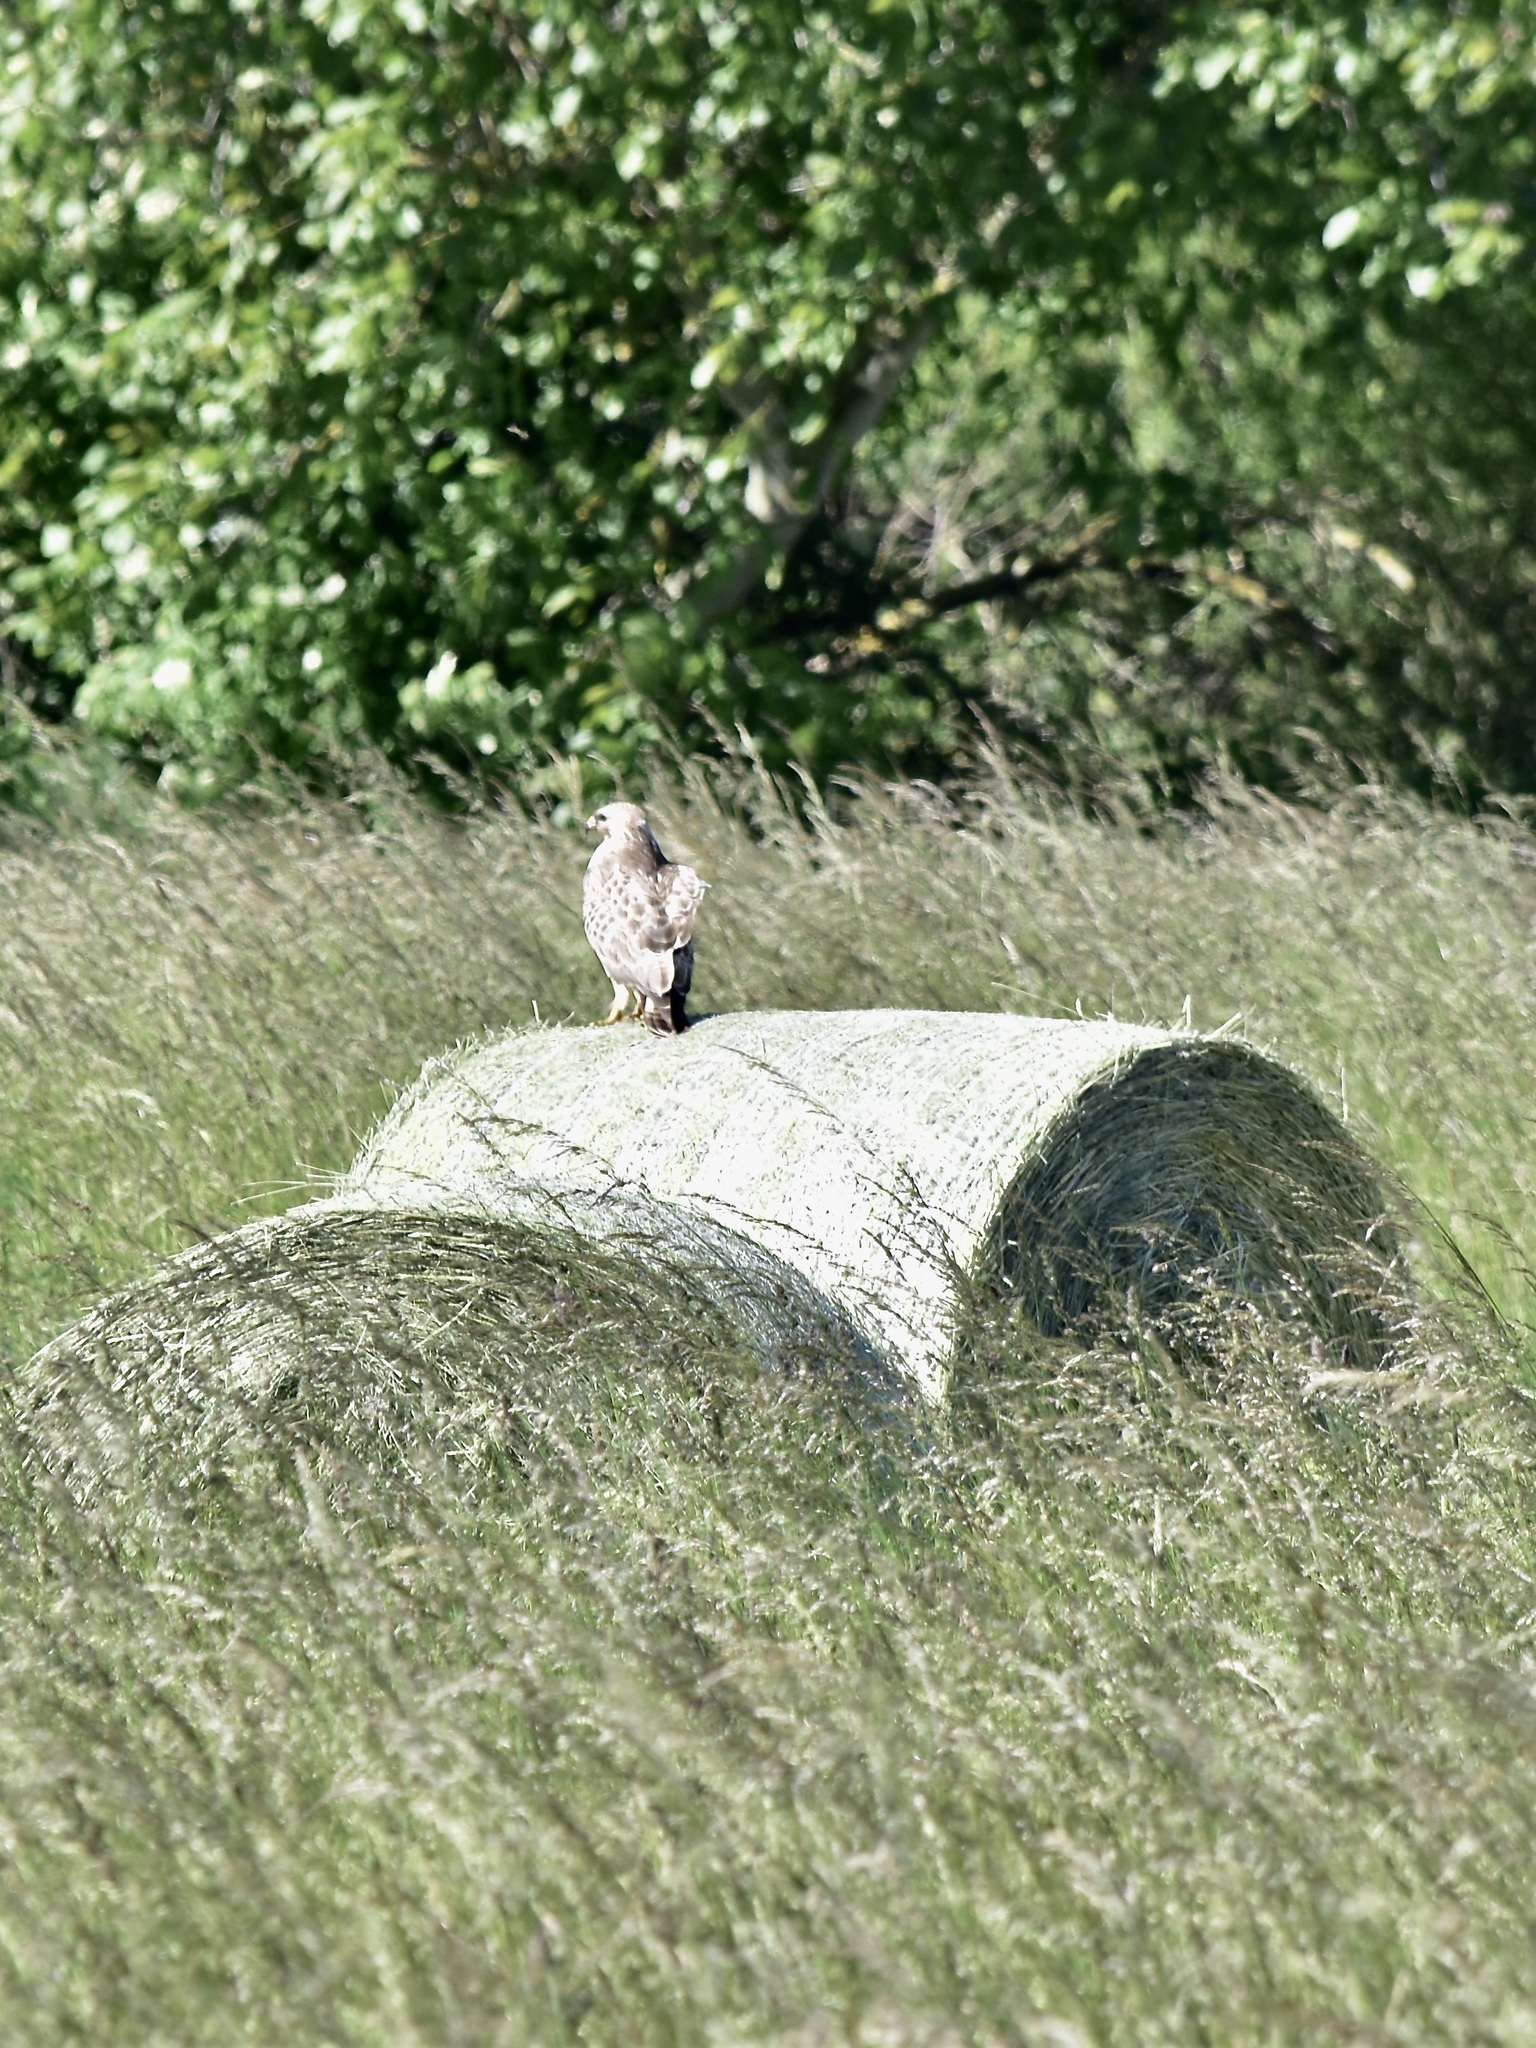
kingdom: Animalia
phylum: Chordata
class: Aves
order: Accipitriformes
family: Accipitridae
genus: Buteo
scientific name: Buteo buteo
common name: Common buzzard
